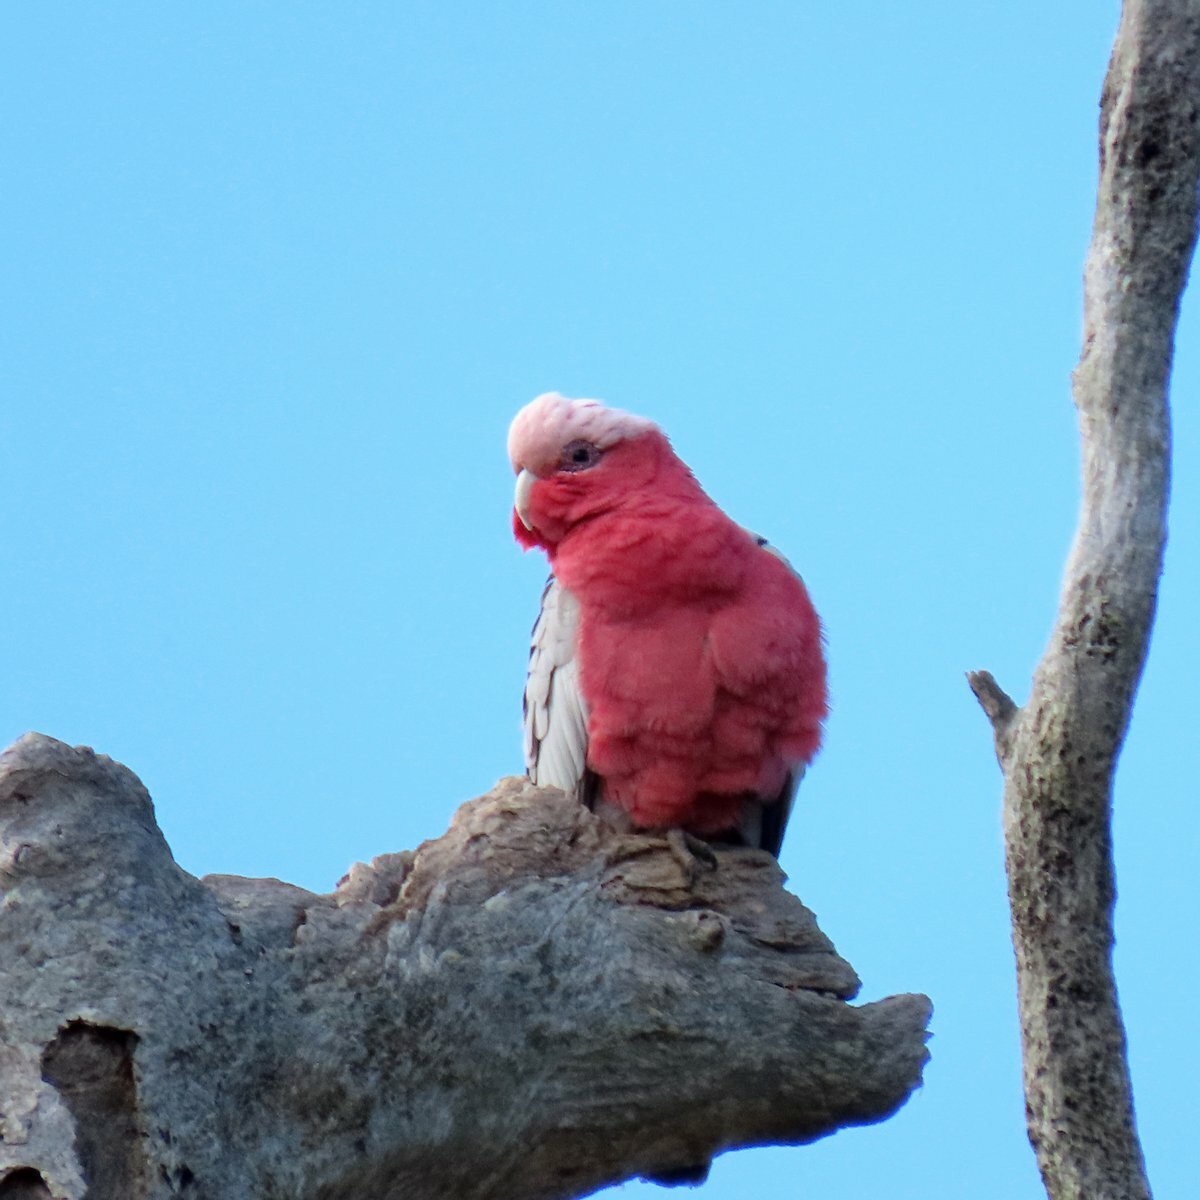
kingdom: Animalia
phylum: Chordata
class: Aves
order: Psittaciformes
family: Psittacidae
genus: Eolophus
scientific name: Eolophus roseicapilla
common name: Galah
